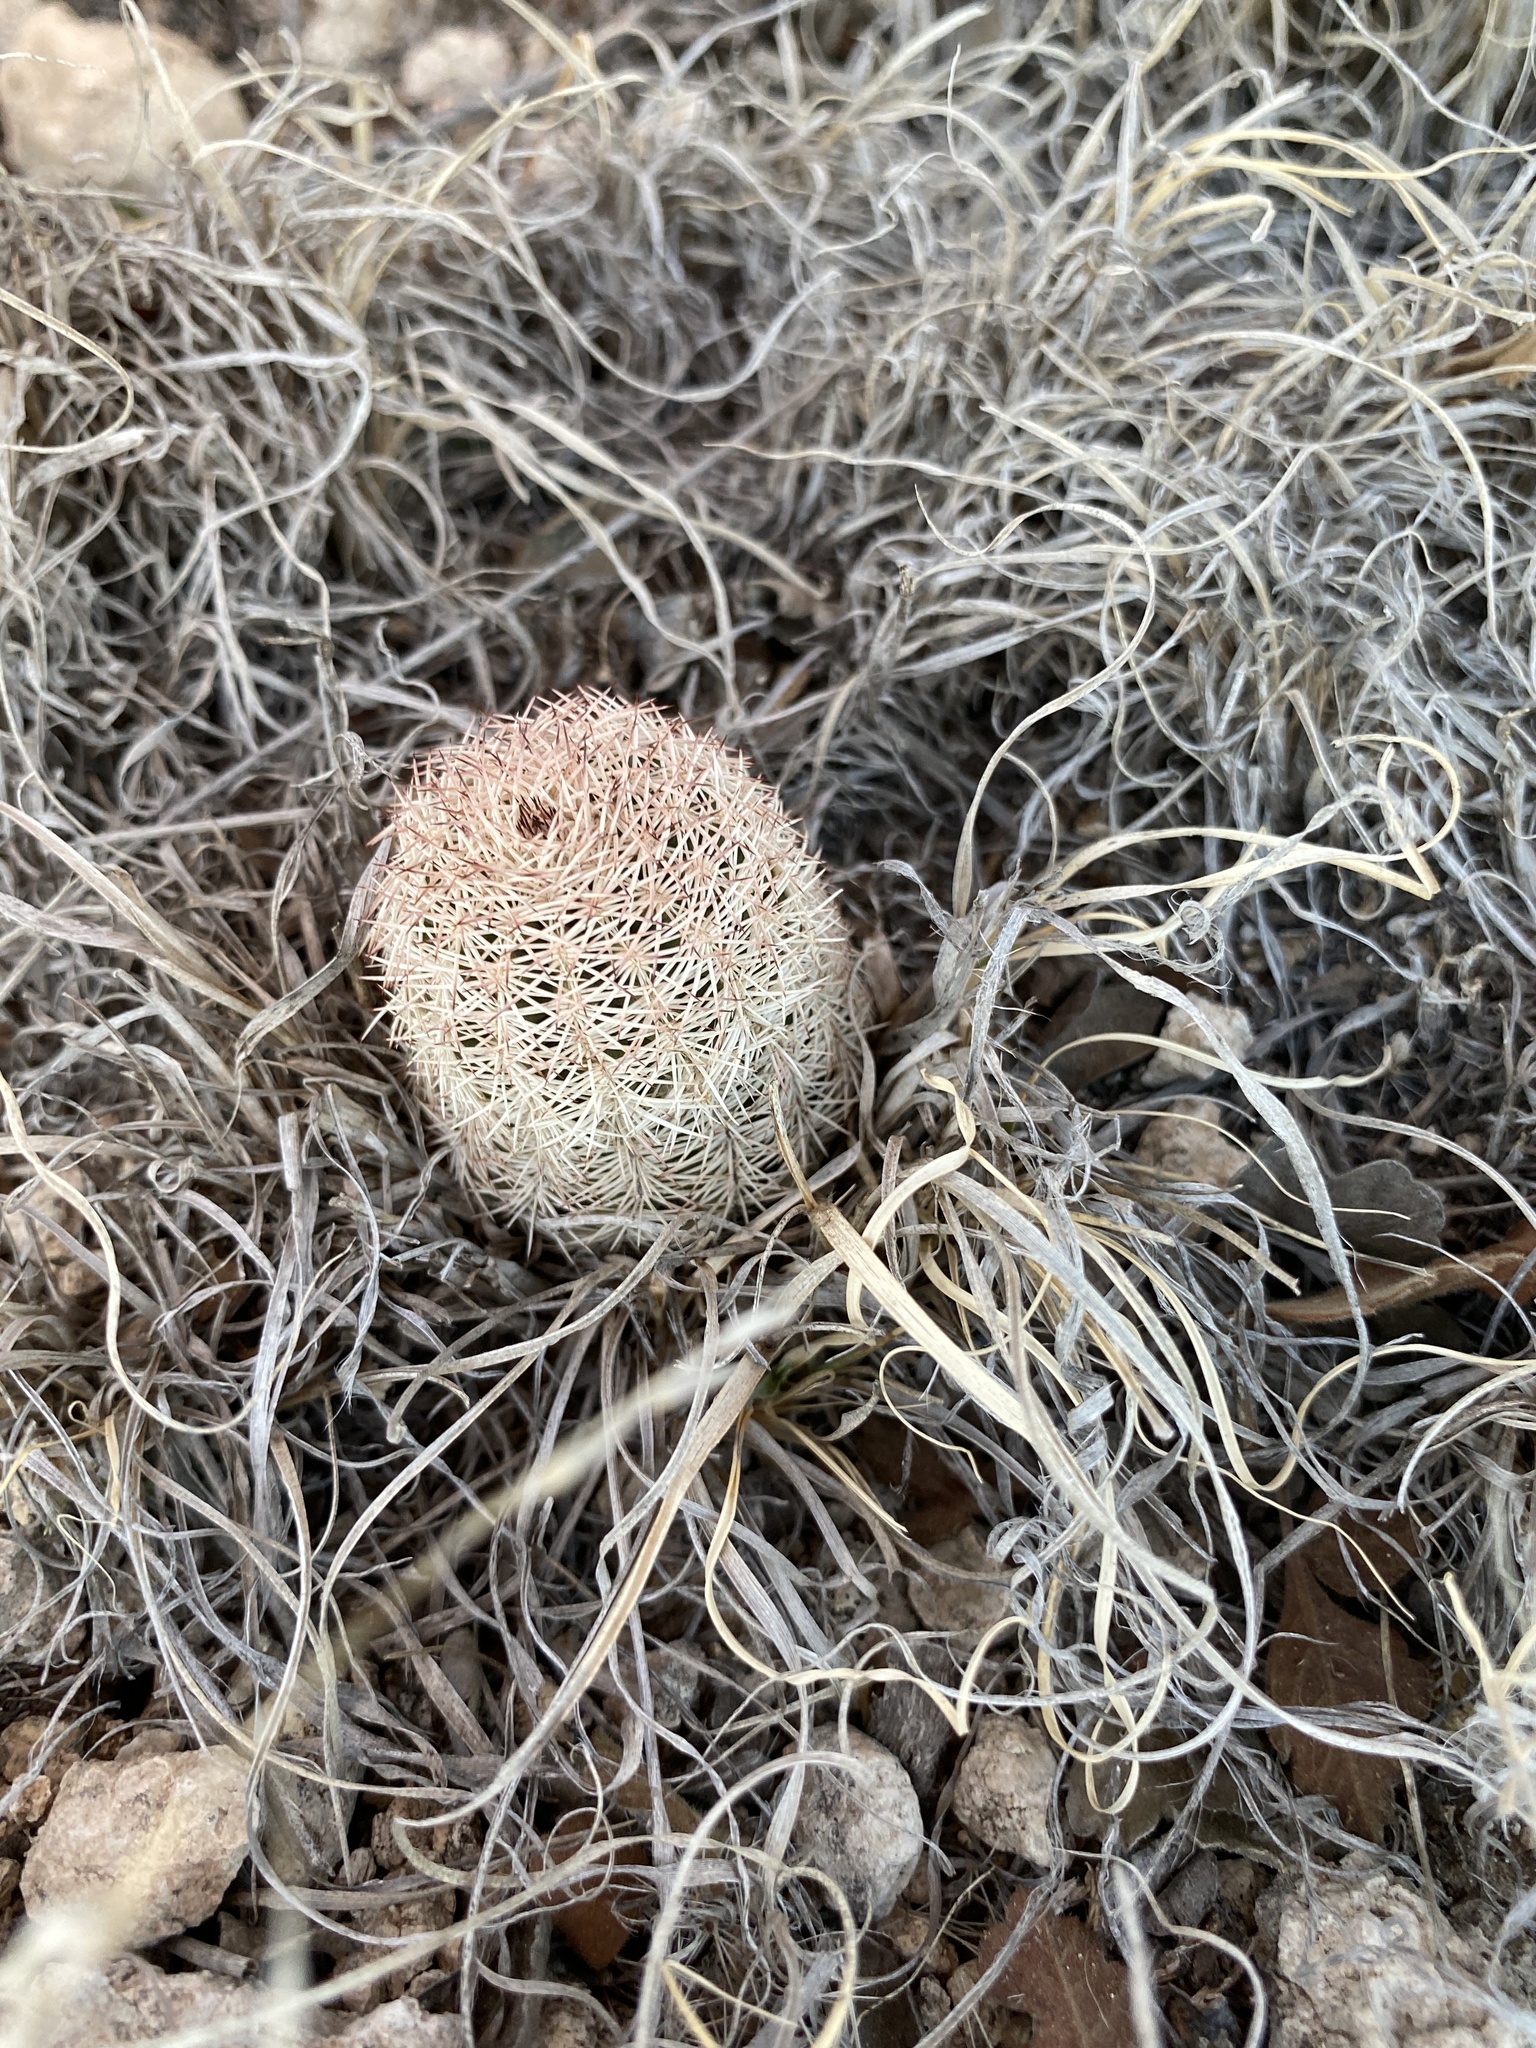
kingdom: Plantae
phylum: Tracheophyta
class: Magnoliopsida
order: Caryophyllales
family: Cactaceae
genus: Echinocereus
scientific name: Echinocereus reichenbachii
